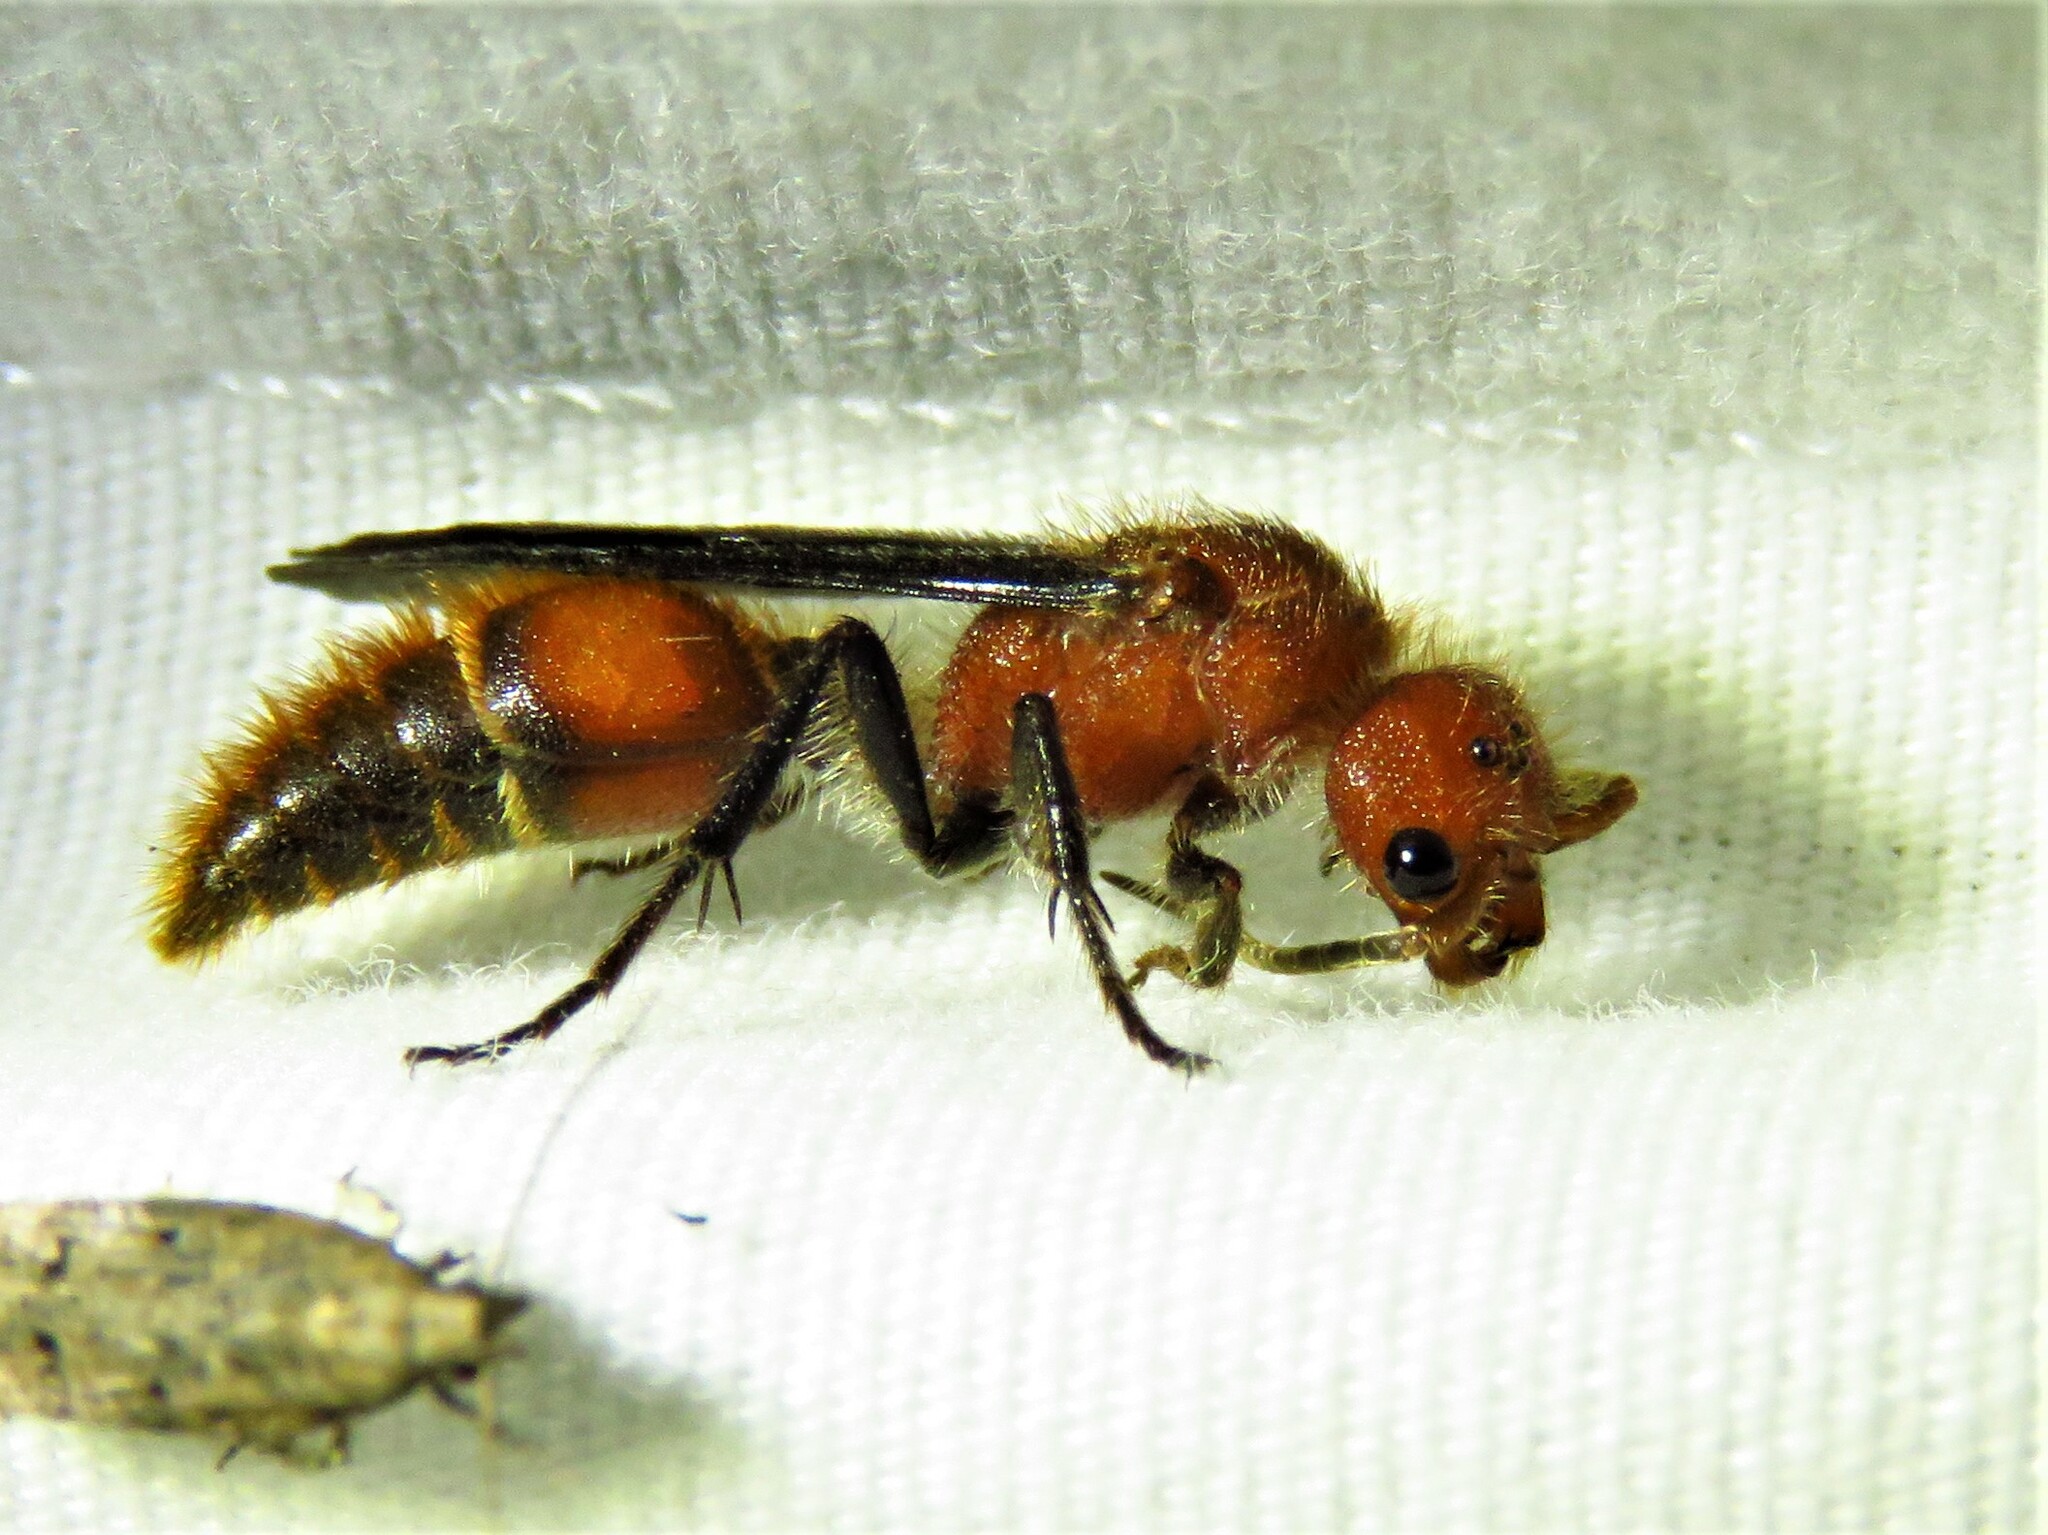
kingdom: Animalia
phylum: Arthropoda
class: Insecta
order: Hymenoptera
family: Mutillidae
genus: Sphaeropthalma
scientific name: Sphaeropthalma
